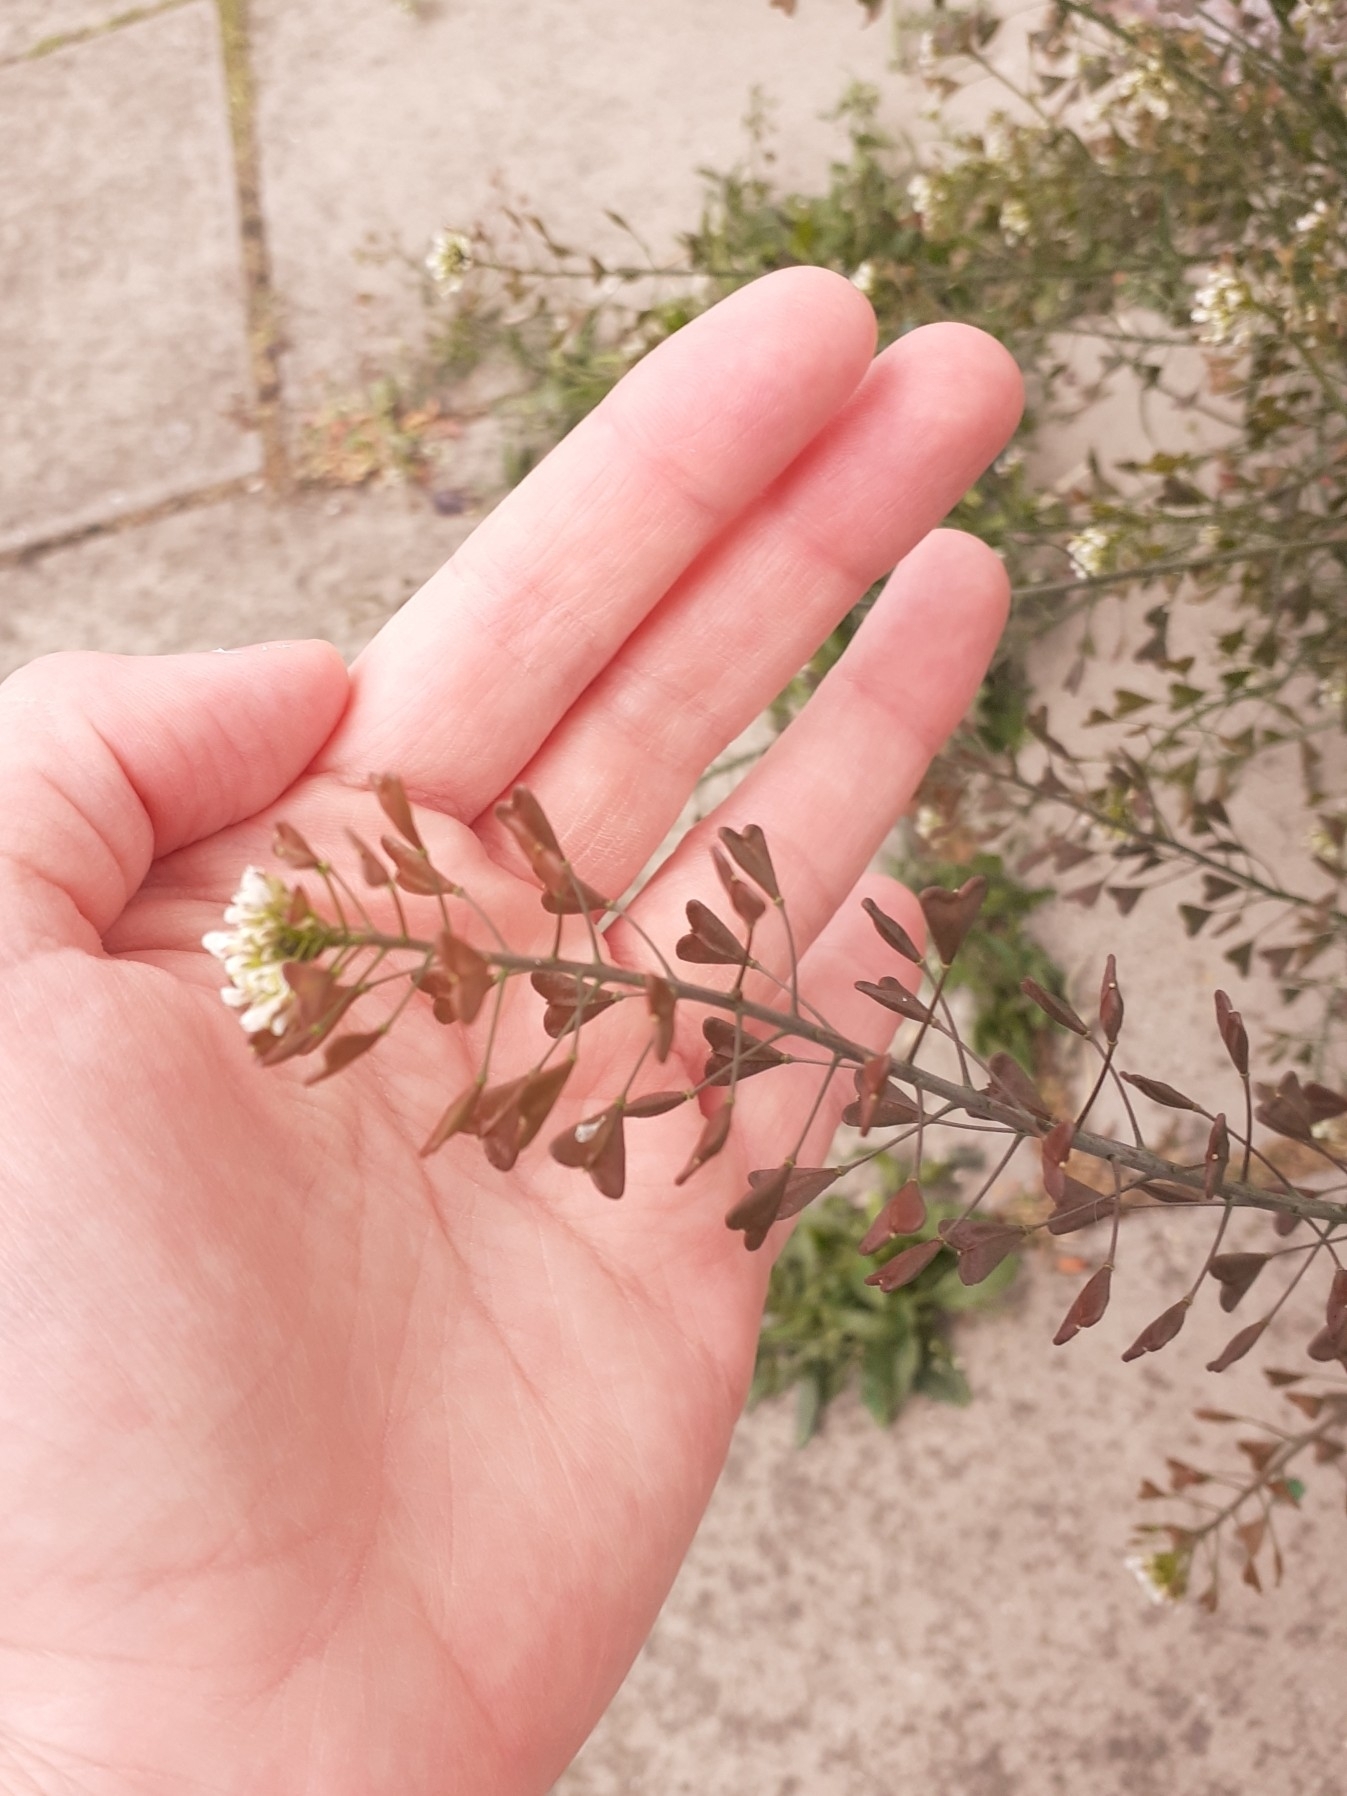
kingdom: Plantae
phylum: Tracheophyta
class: Magnoliopsida
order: Brassicales
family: Brassicaceae
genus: Capsella
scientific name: Capsella bursa-pastoris
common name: Shepherd's purse
